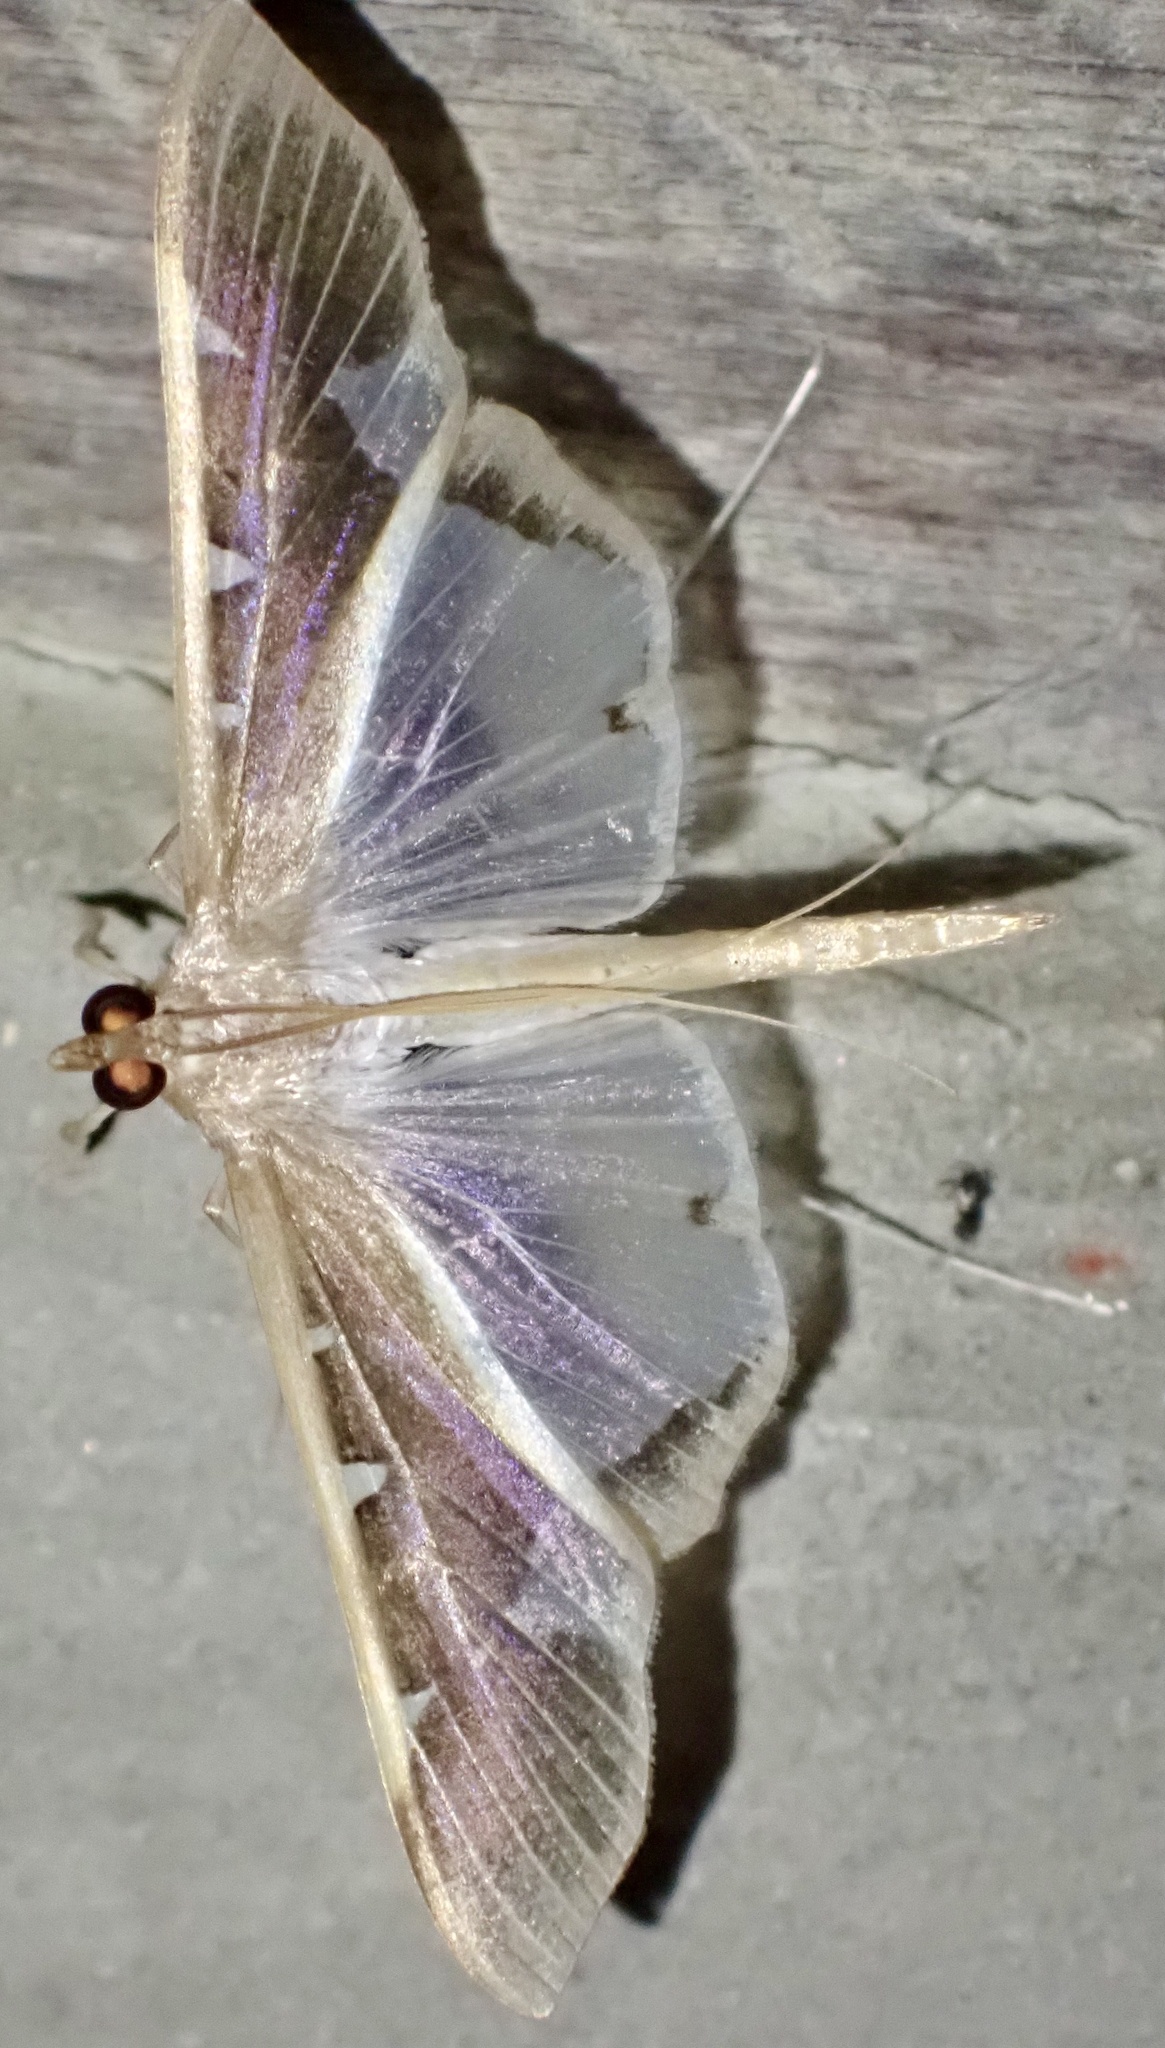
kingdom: Animalia
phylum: Arthropoda
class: Insecta
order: Lepidoptera
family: Crambidae
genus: Tipuliforma
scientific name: Tipuliforma triangulalis
